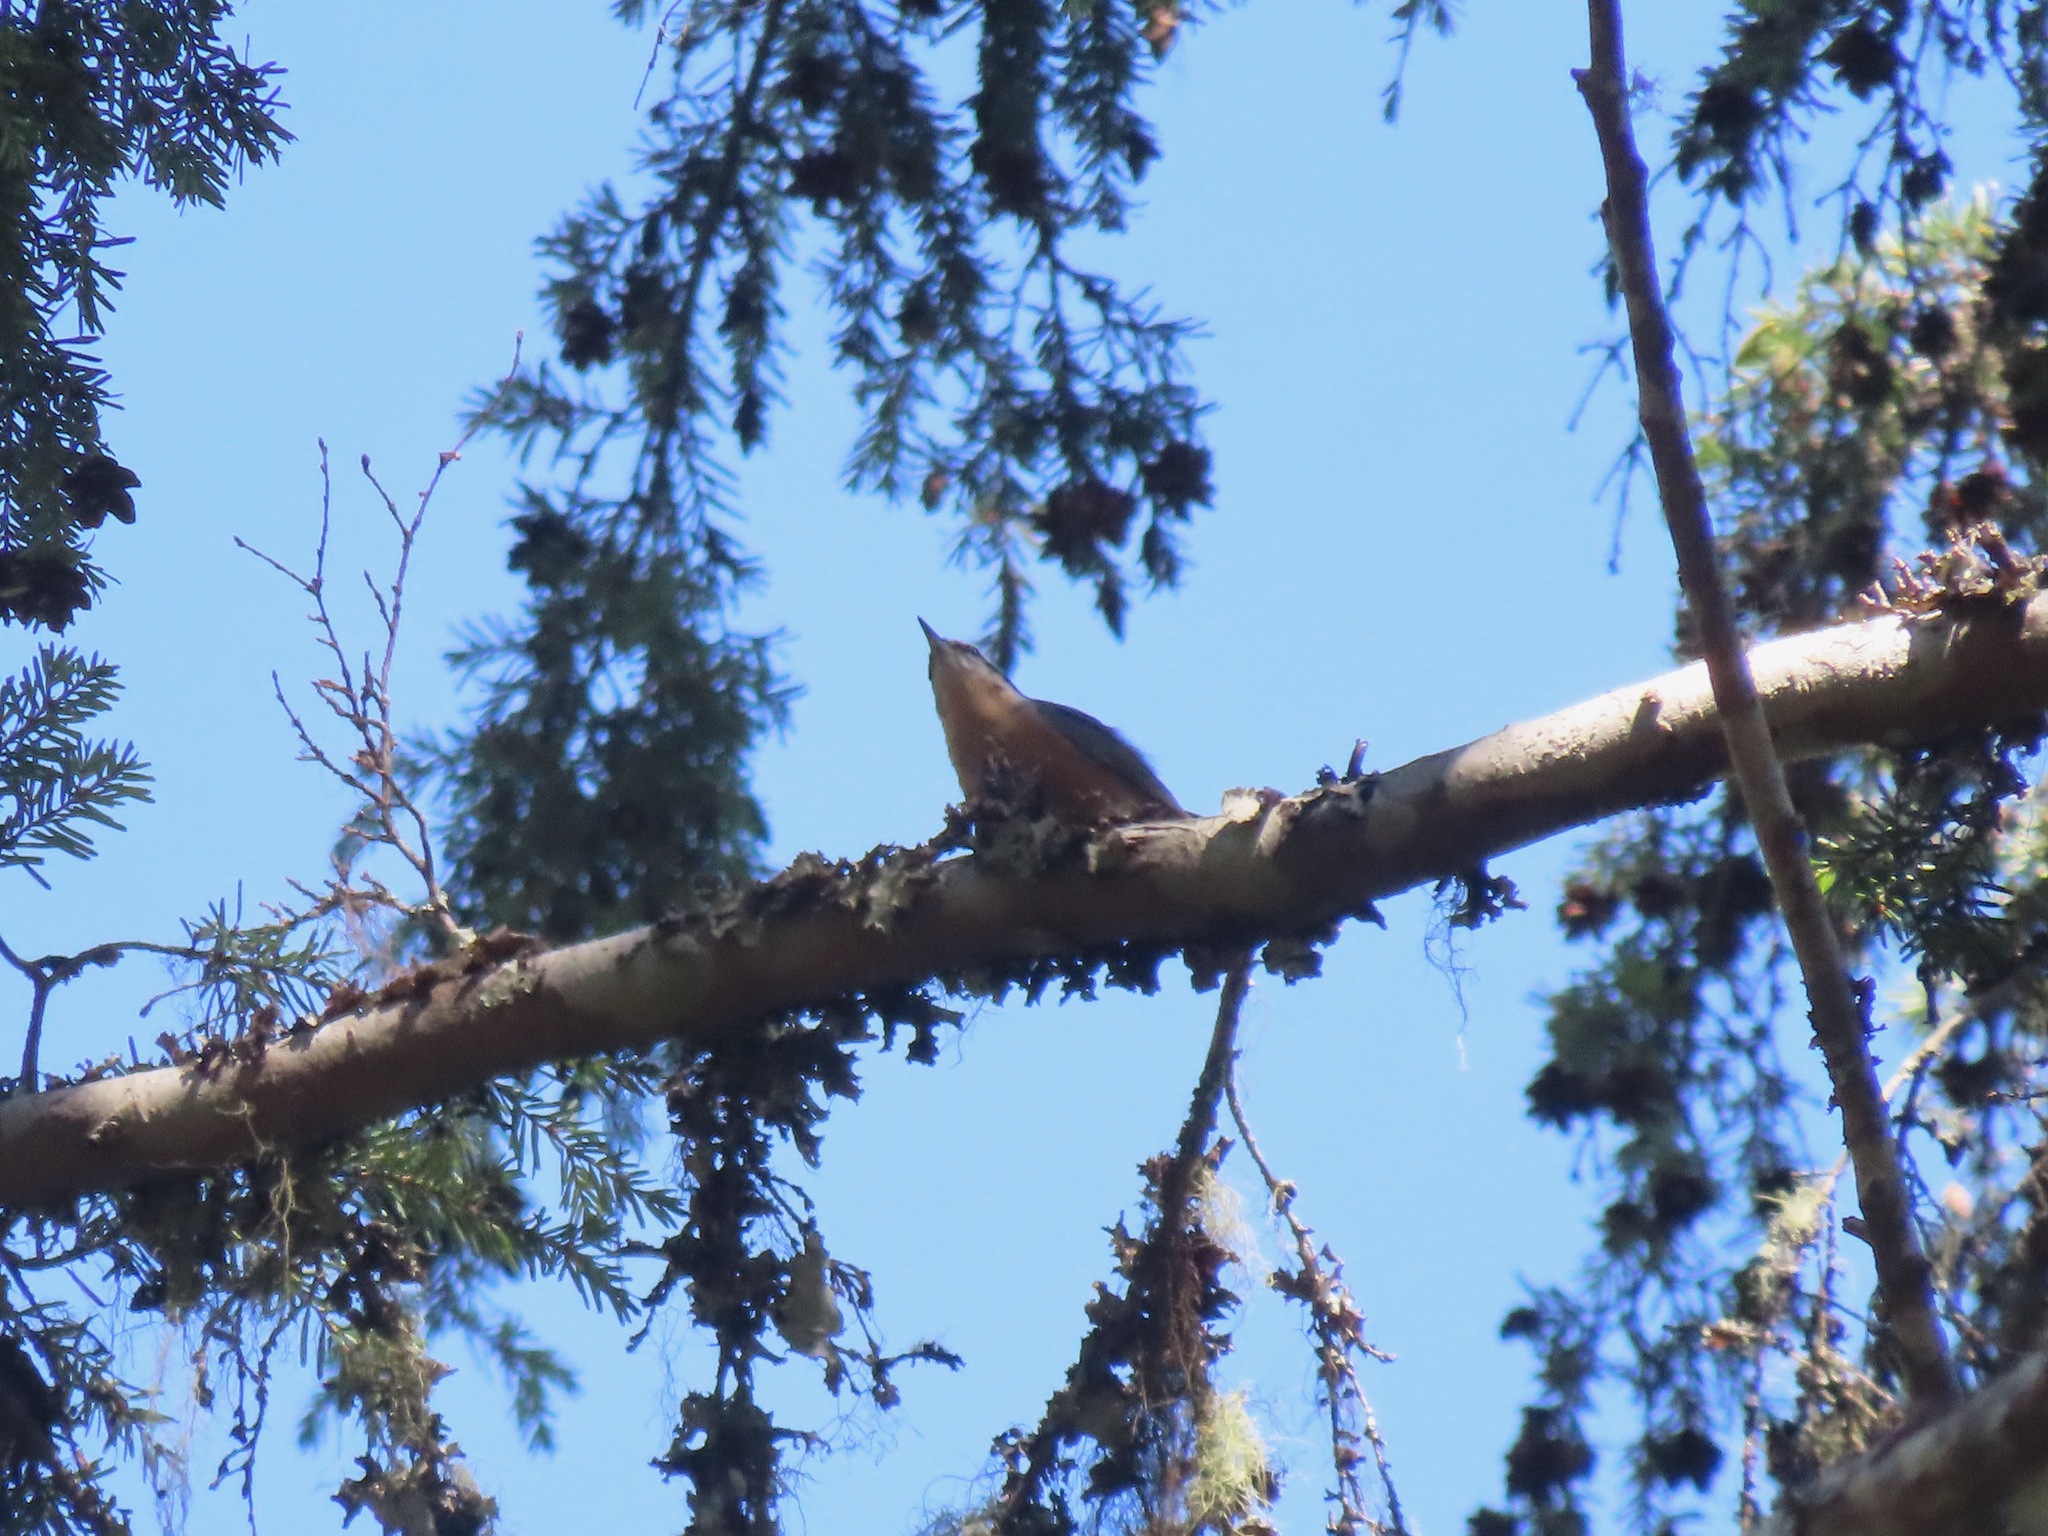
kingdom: Animalia
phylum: Chordata
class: Aves
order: Passeriformes
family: Sittidae
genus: Sitta
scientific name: Sitta canadensis
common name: Red-breasted nuthatch
